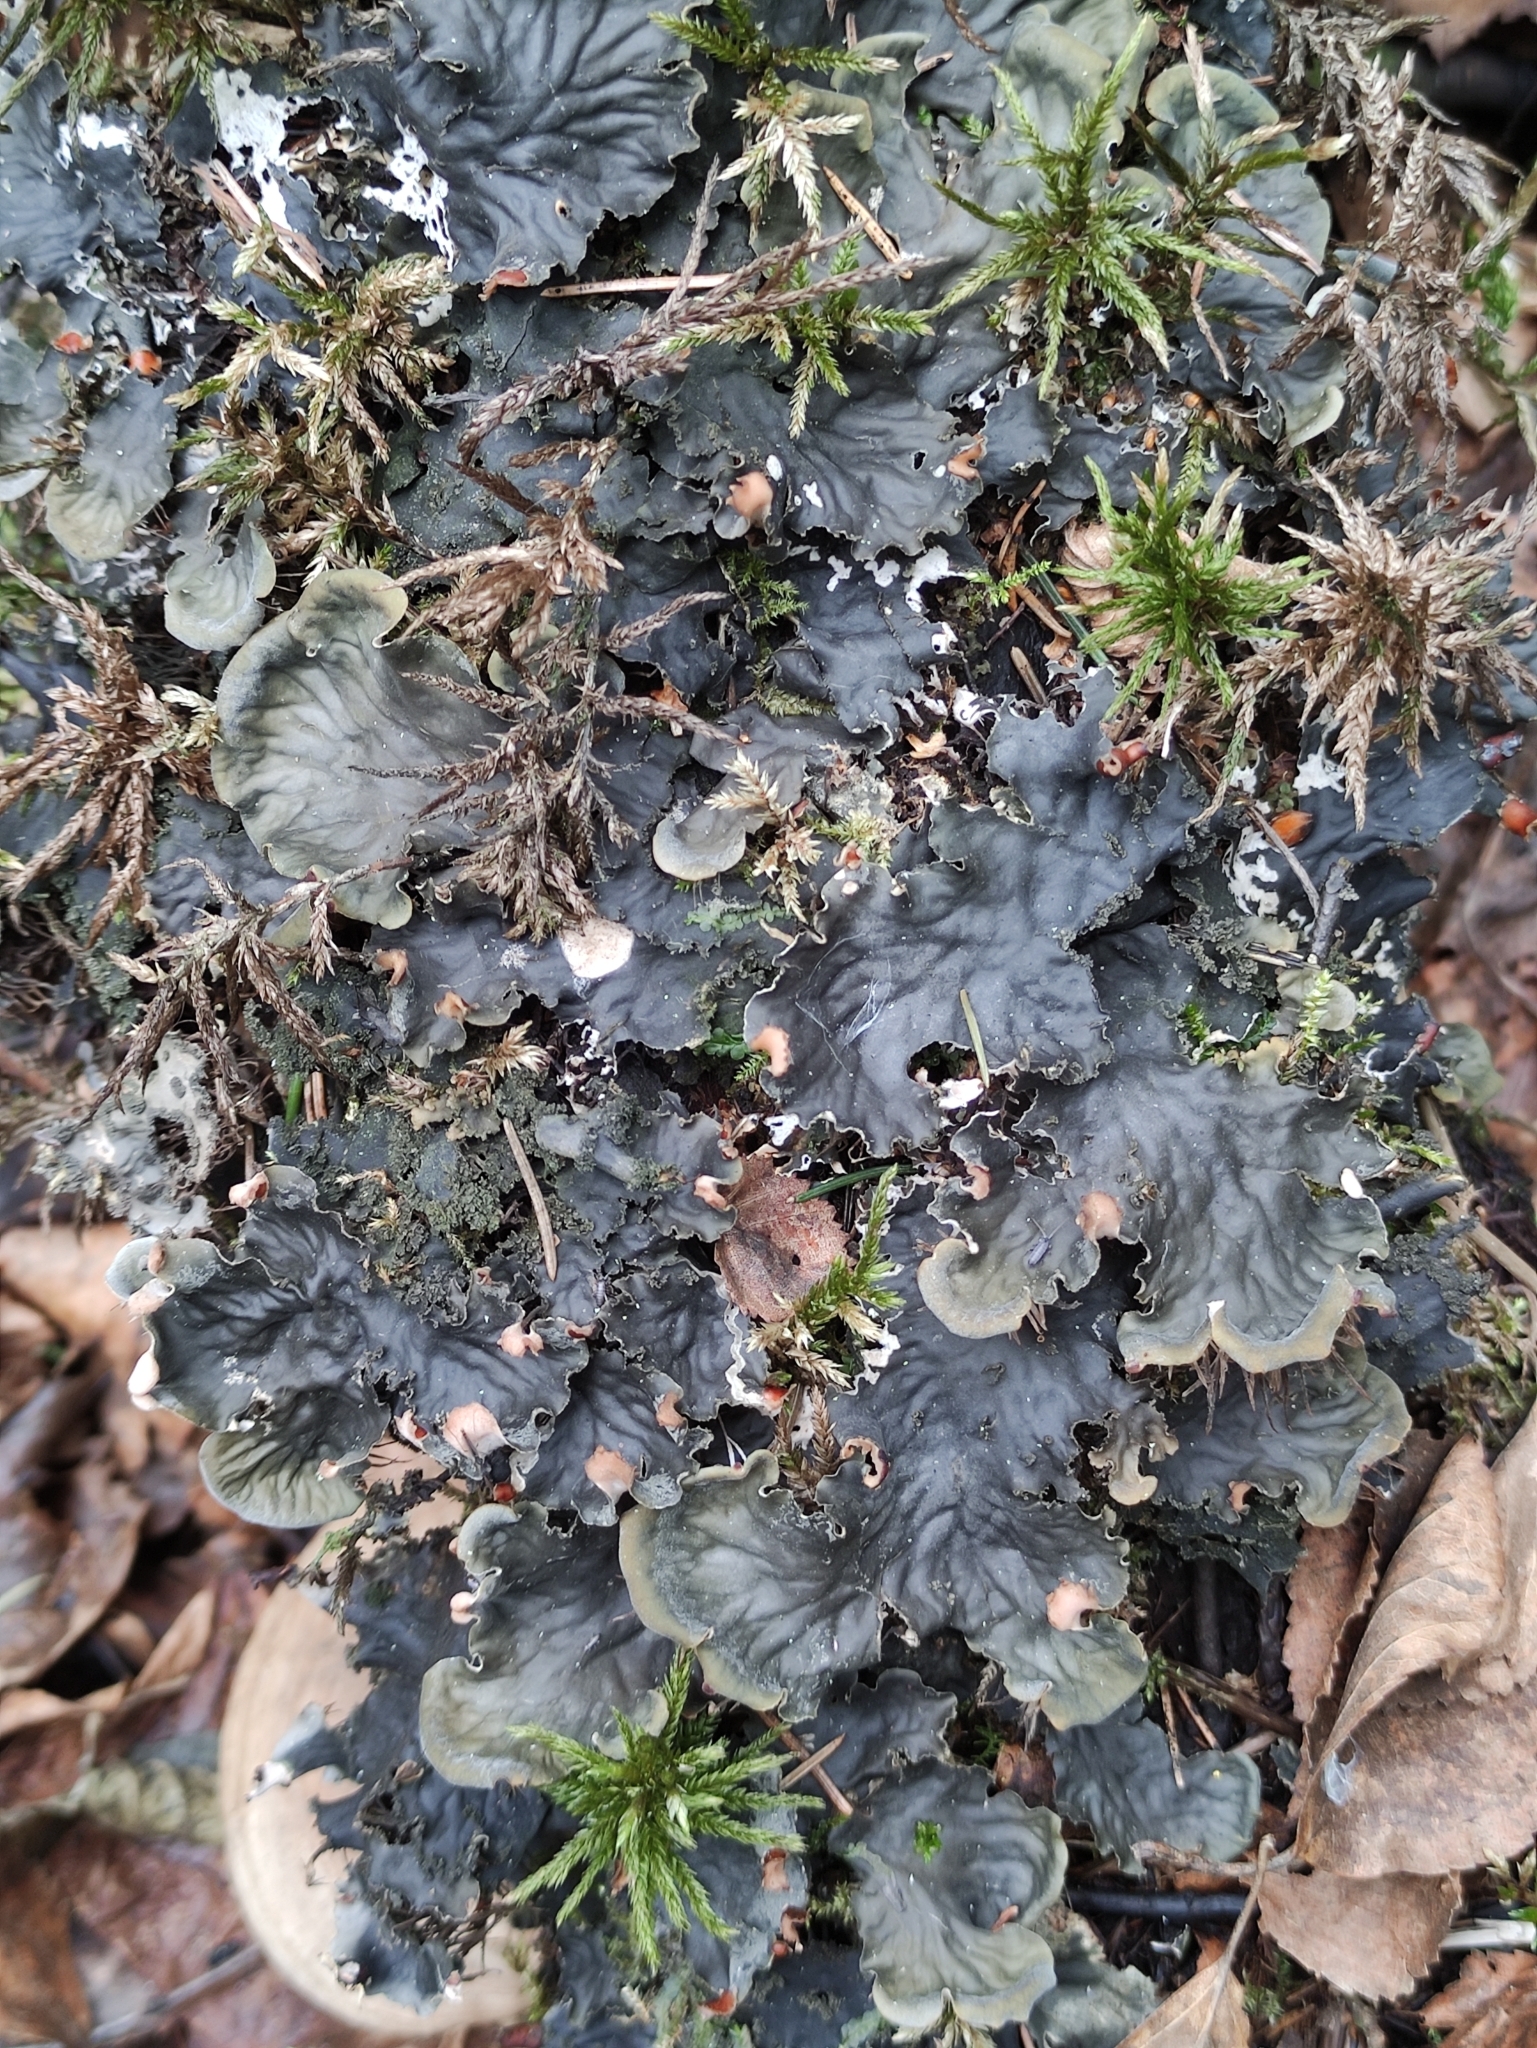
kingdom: Fungi
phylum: Ascomycota
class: Lecanoromycetes
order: Peltigerales
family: Peltigeraceae
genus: Peltigera
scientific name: Peltigera praetextata
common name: Scaly dog-lichen
